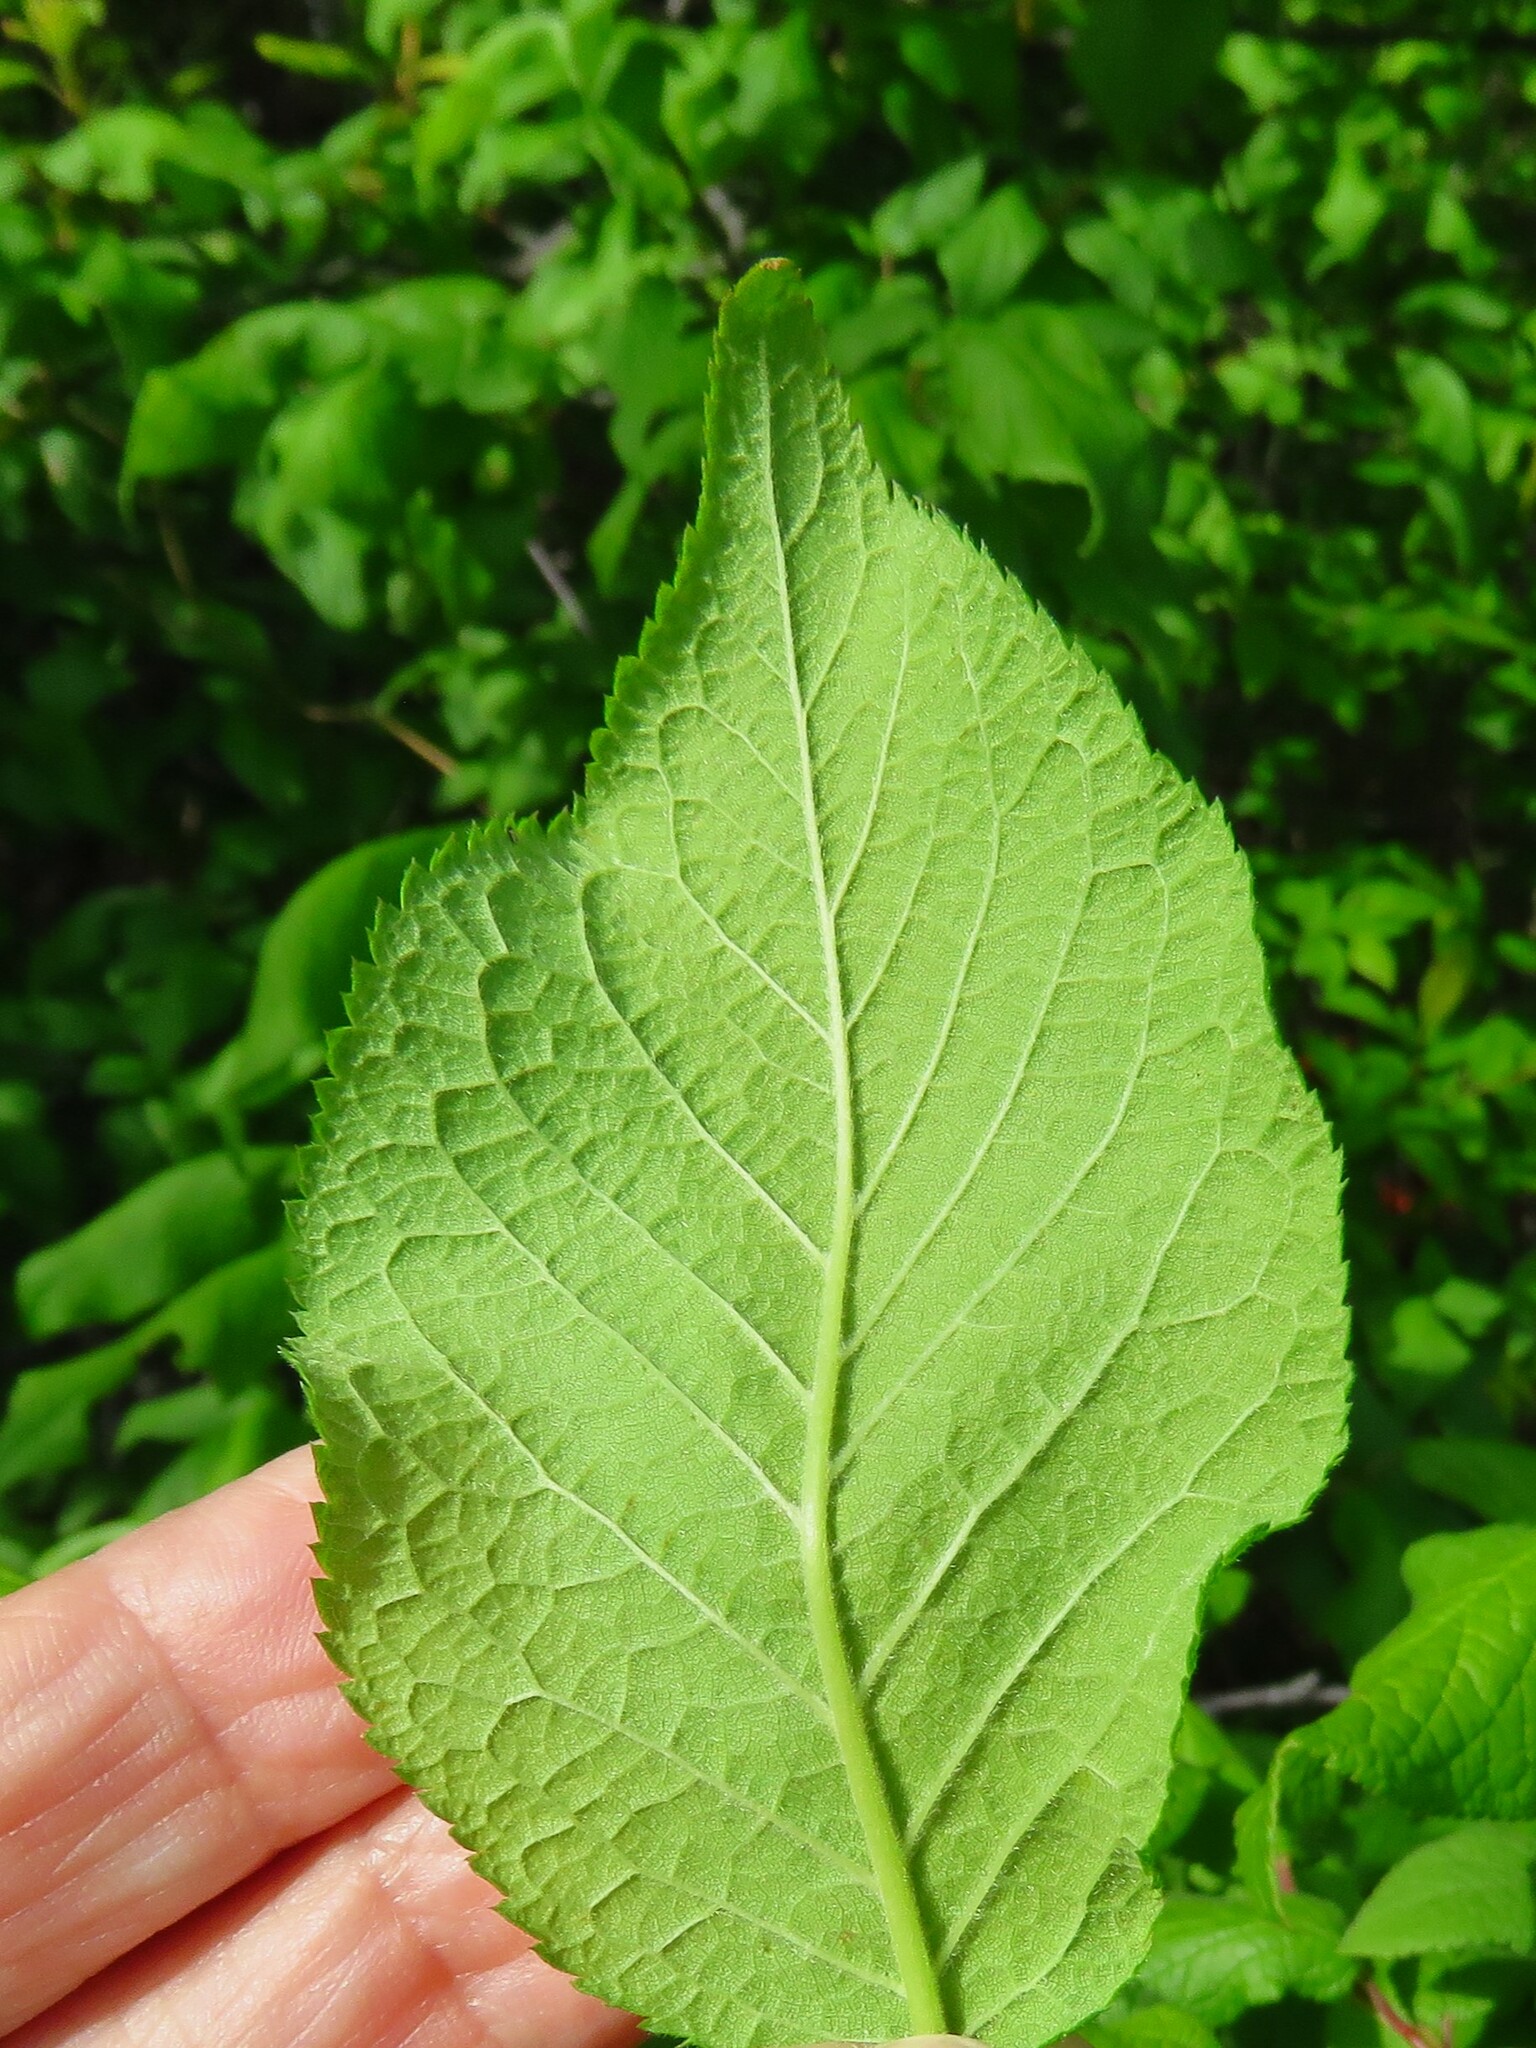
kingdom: Plantae
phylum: Tracheophyta
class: Magnoliopsida
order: Rosales
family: Rosaceae
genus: Prunus
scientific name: Prunus mexicana
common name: Mexican plum
